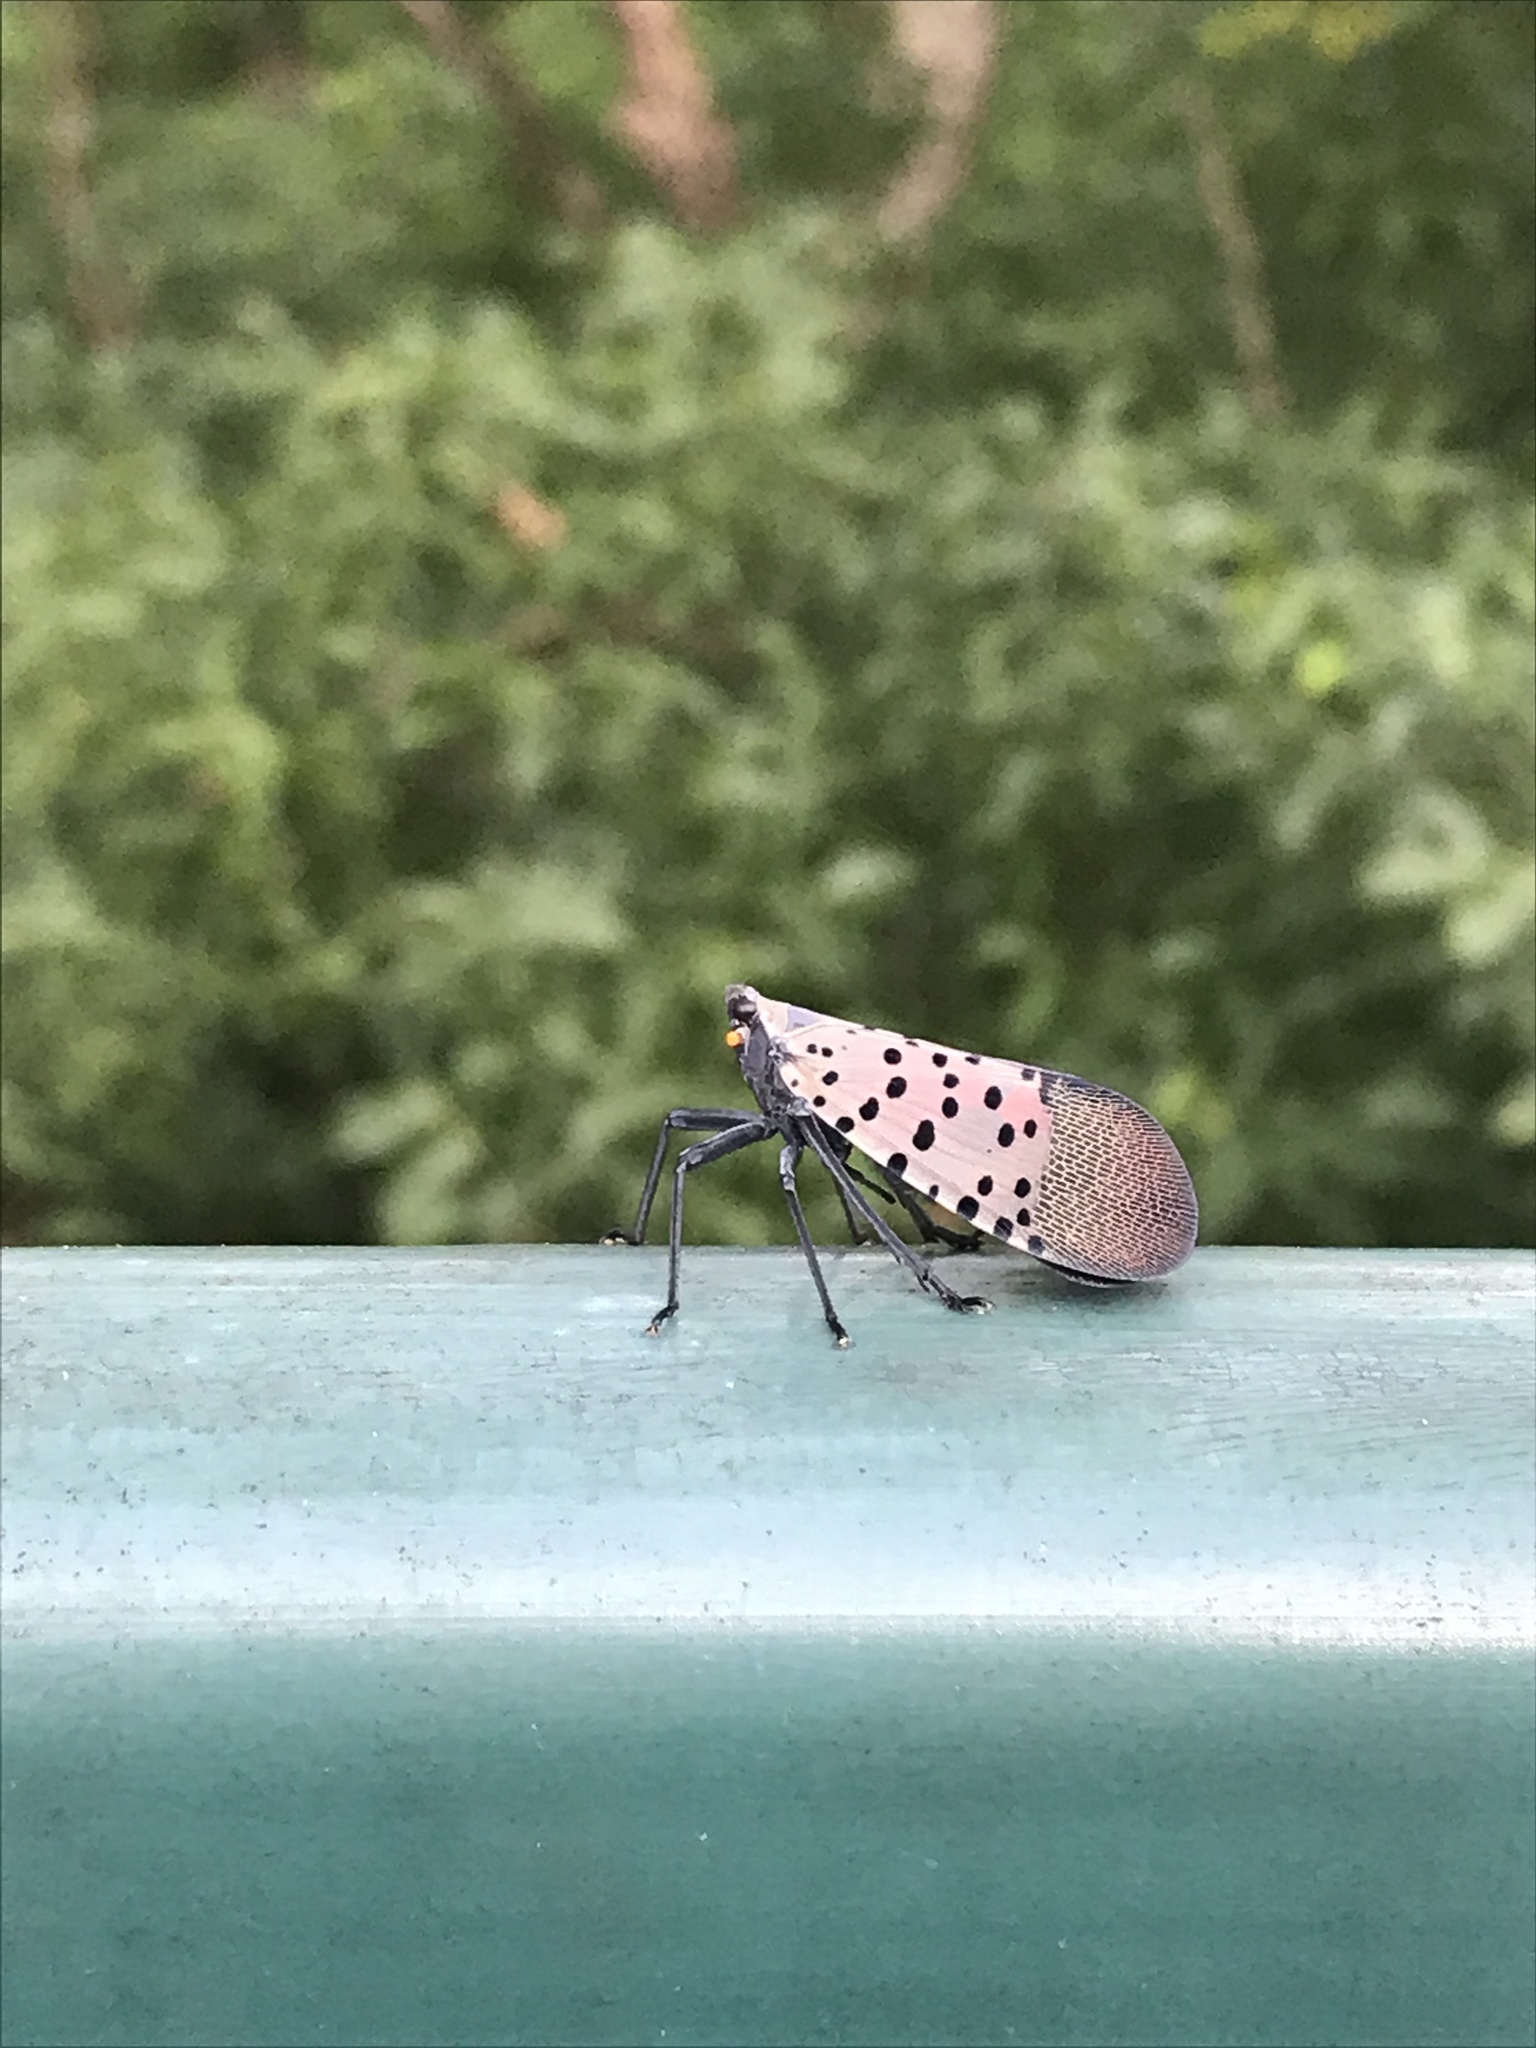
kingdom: Animalia
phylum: Arthropoda
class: Insecta
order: Hemiptera
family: Fulgoridae
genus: Lycorma
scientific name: Lycorma delicatula
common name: Spotted lanternfly
